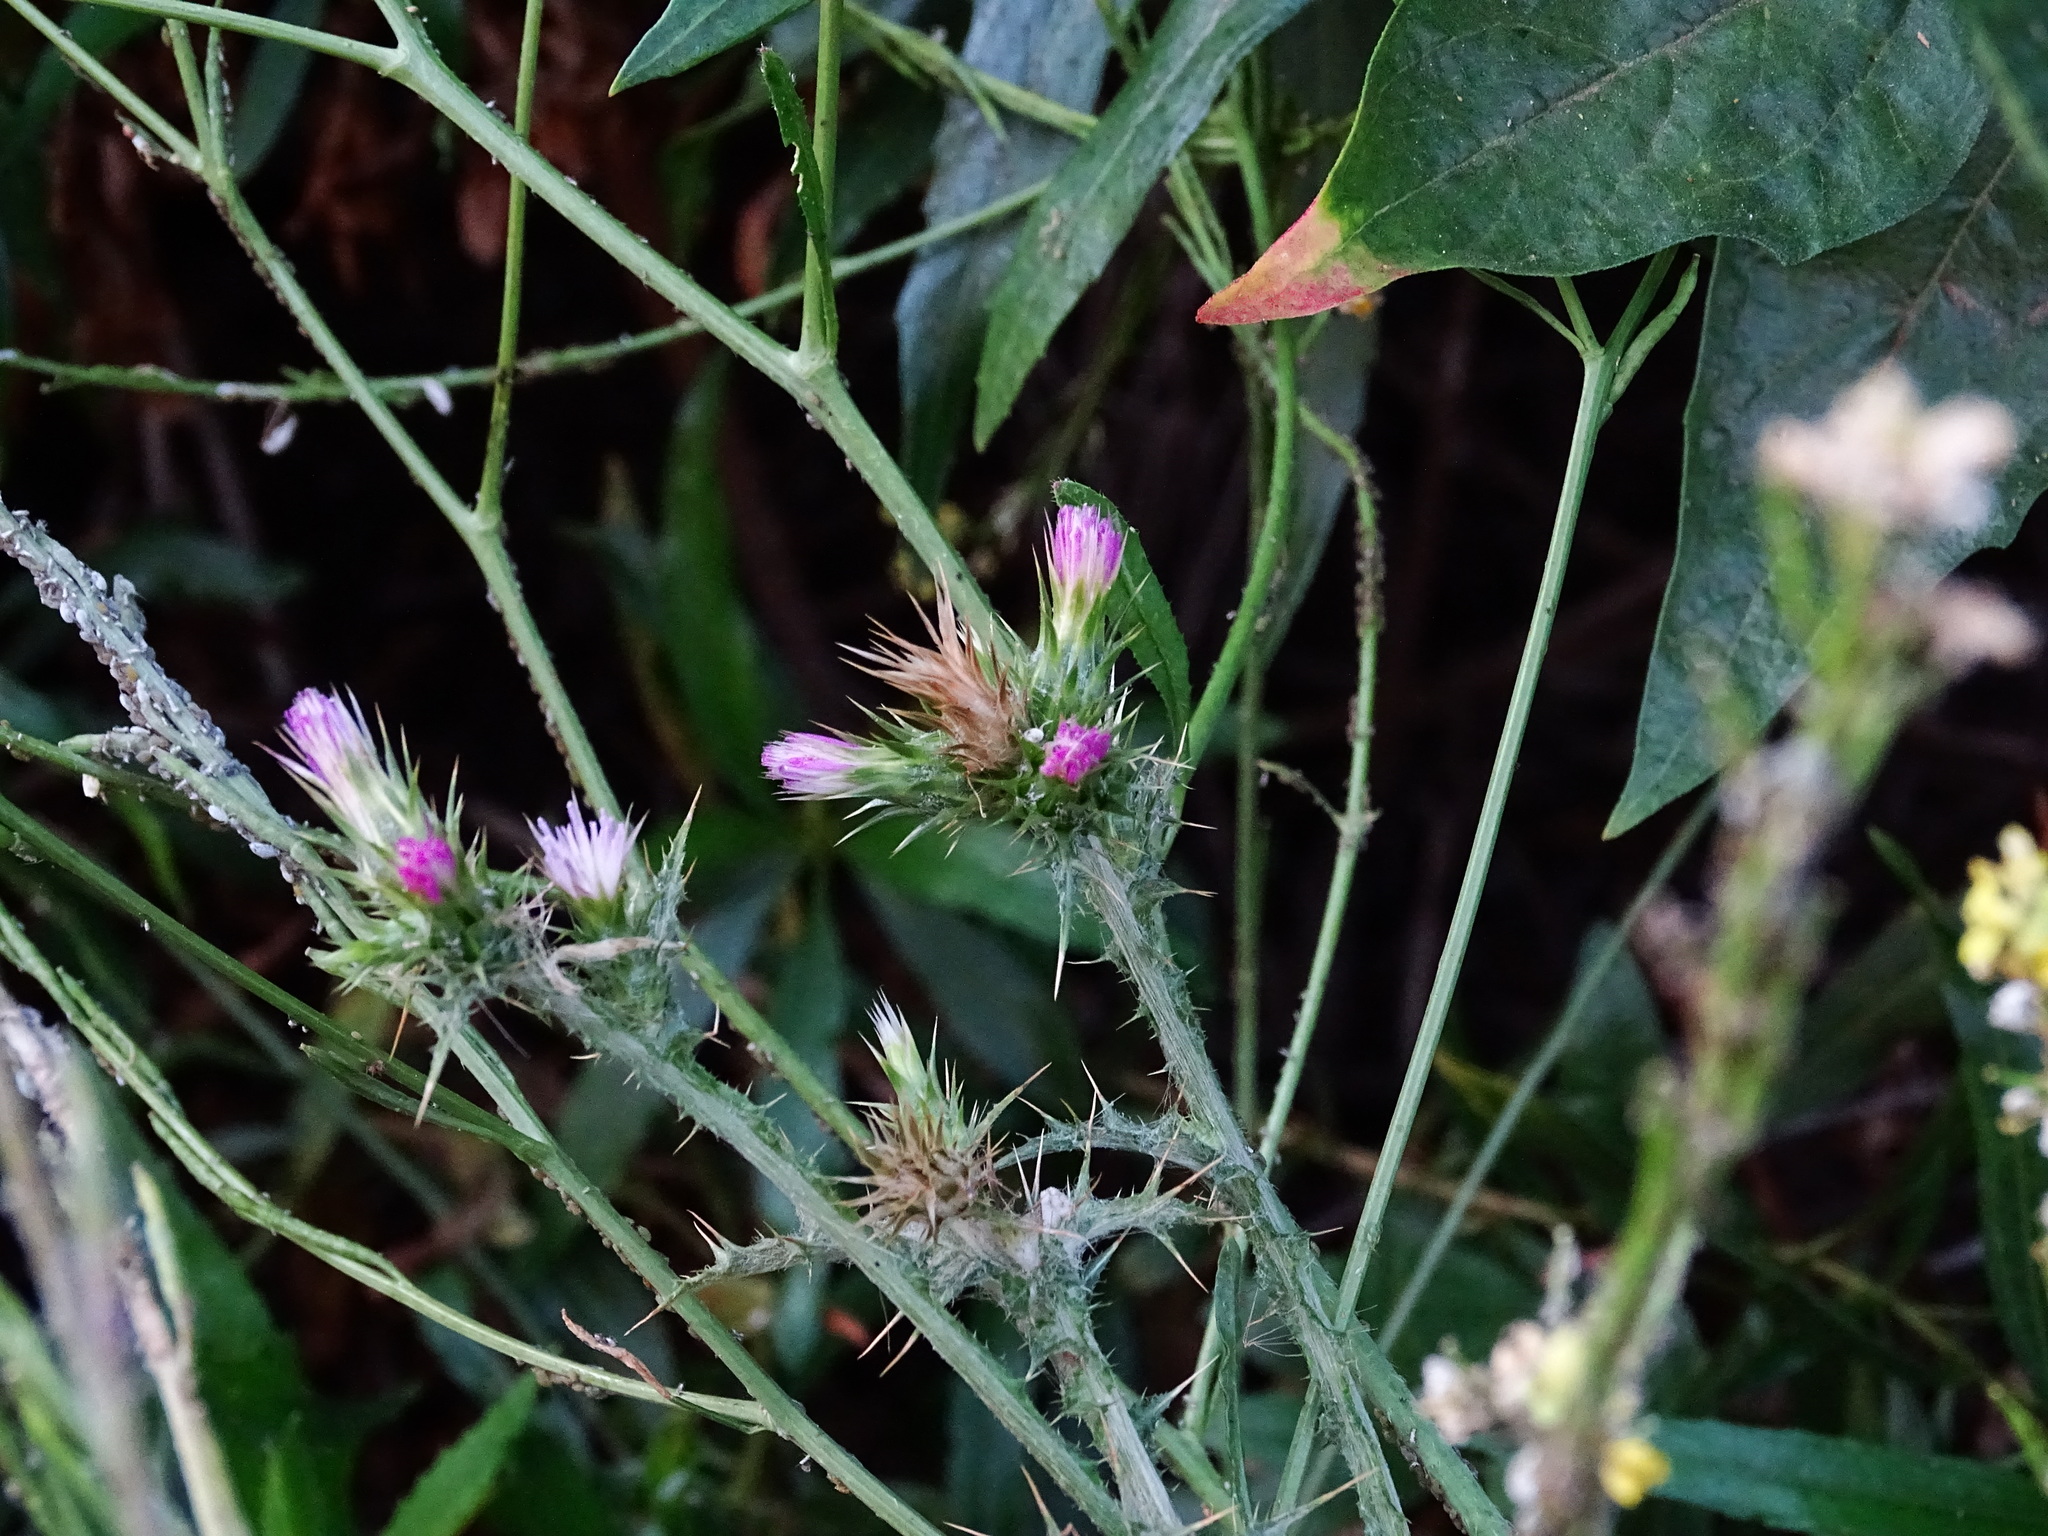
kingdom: Plantae
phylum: Tracheophyta
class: Magnoliopsida
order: Asterales
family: Asteraceae
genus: Carduus
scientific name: Carduus pycnocephalus
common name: Plymouth thistle
